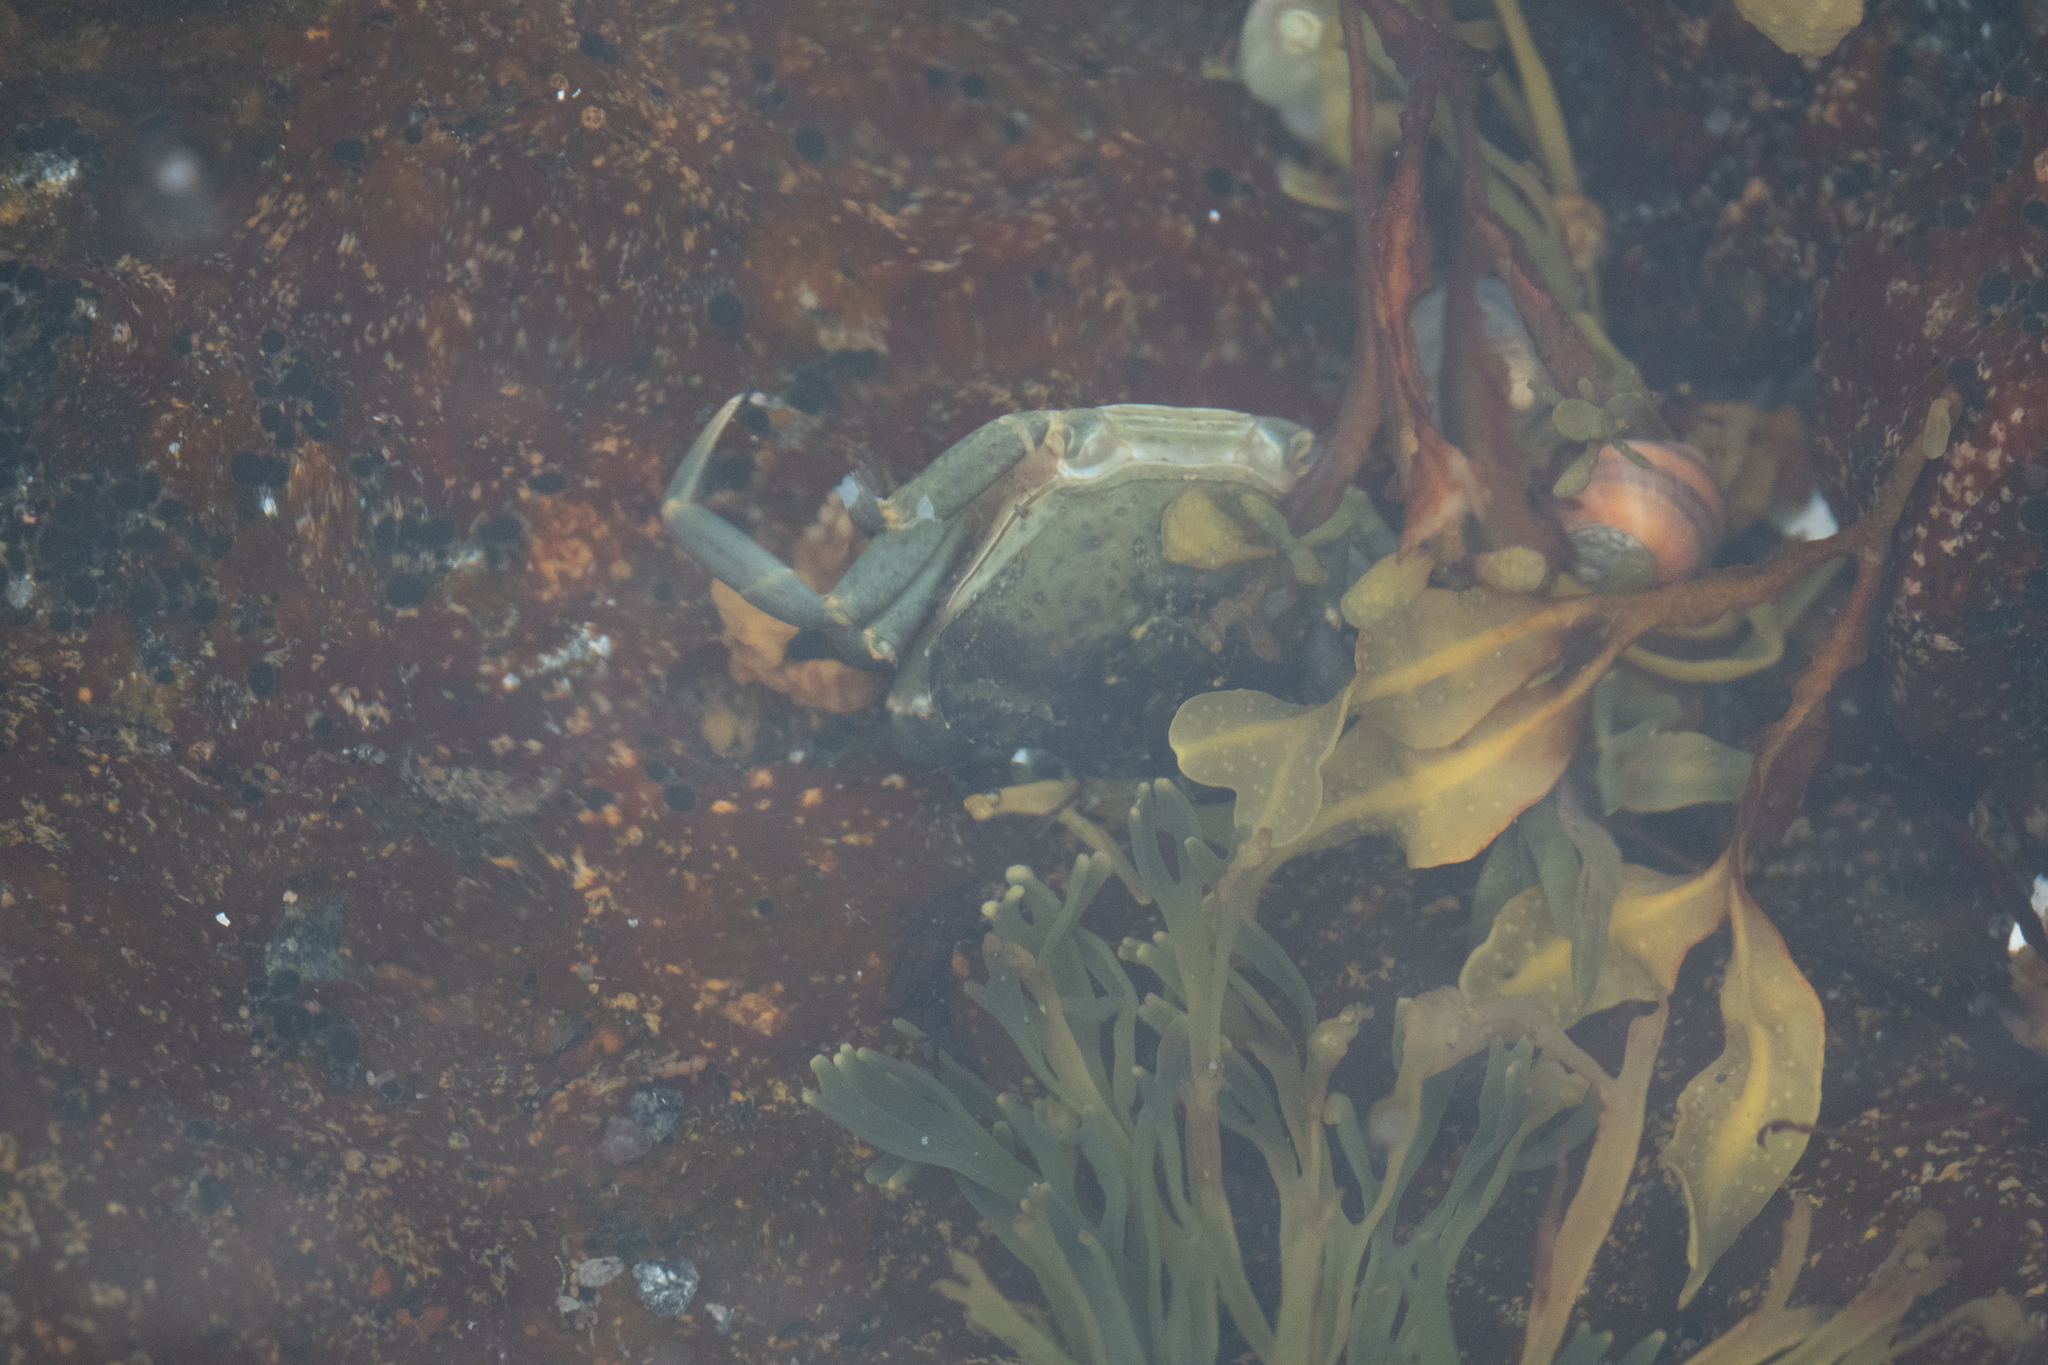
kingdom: Animalia
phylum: Arthropoda
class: Malacostraca
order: Decapoda
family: Carcinidae
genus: Carcinus
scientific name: Carcinus maenas
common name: European green crab
